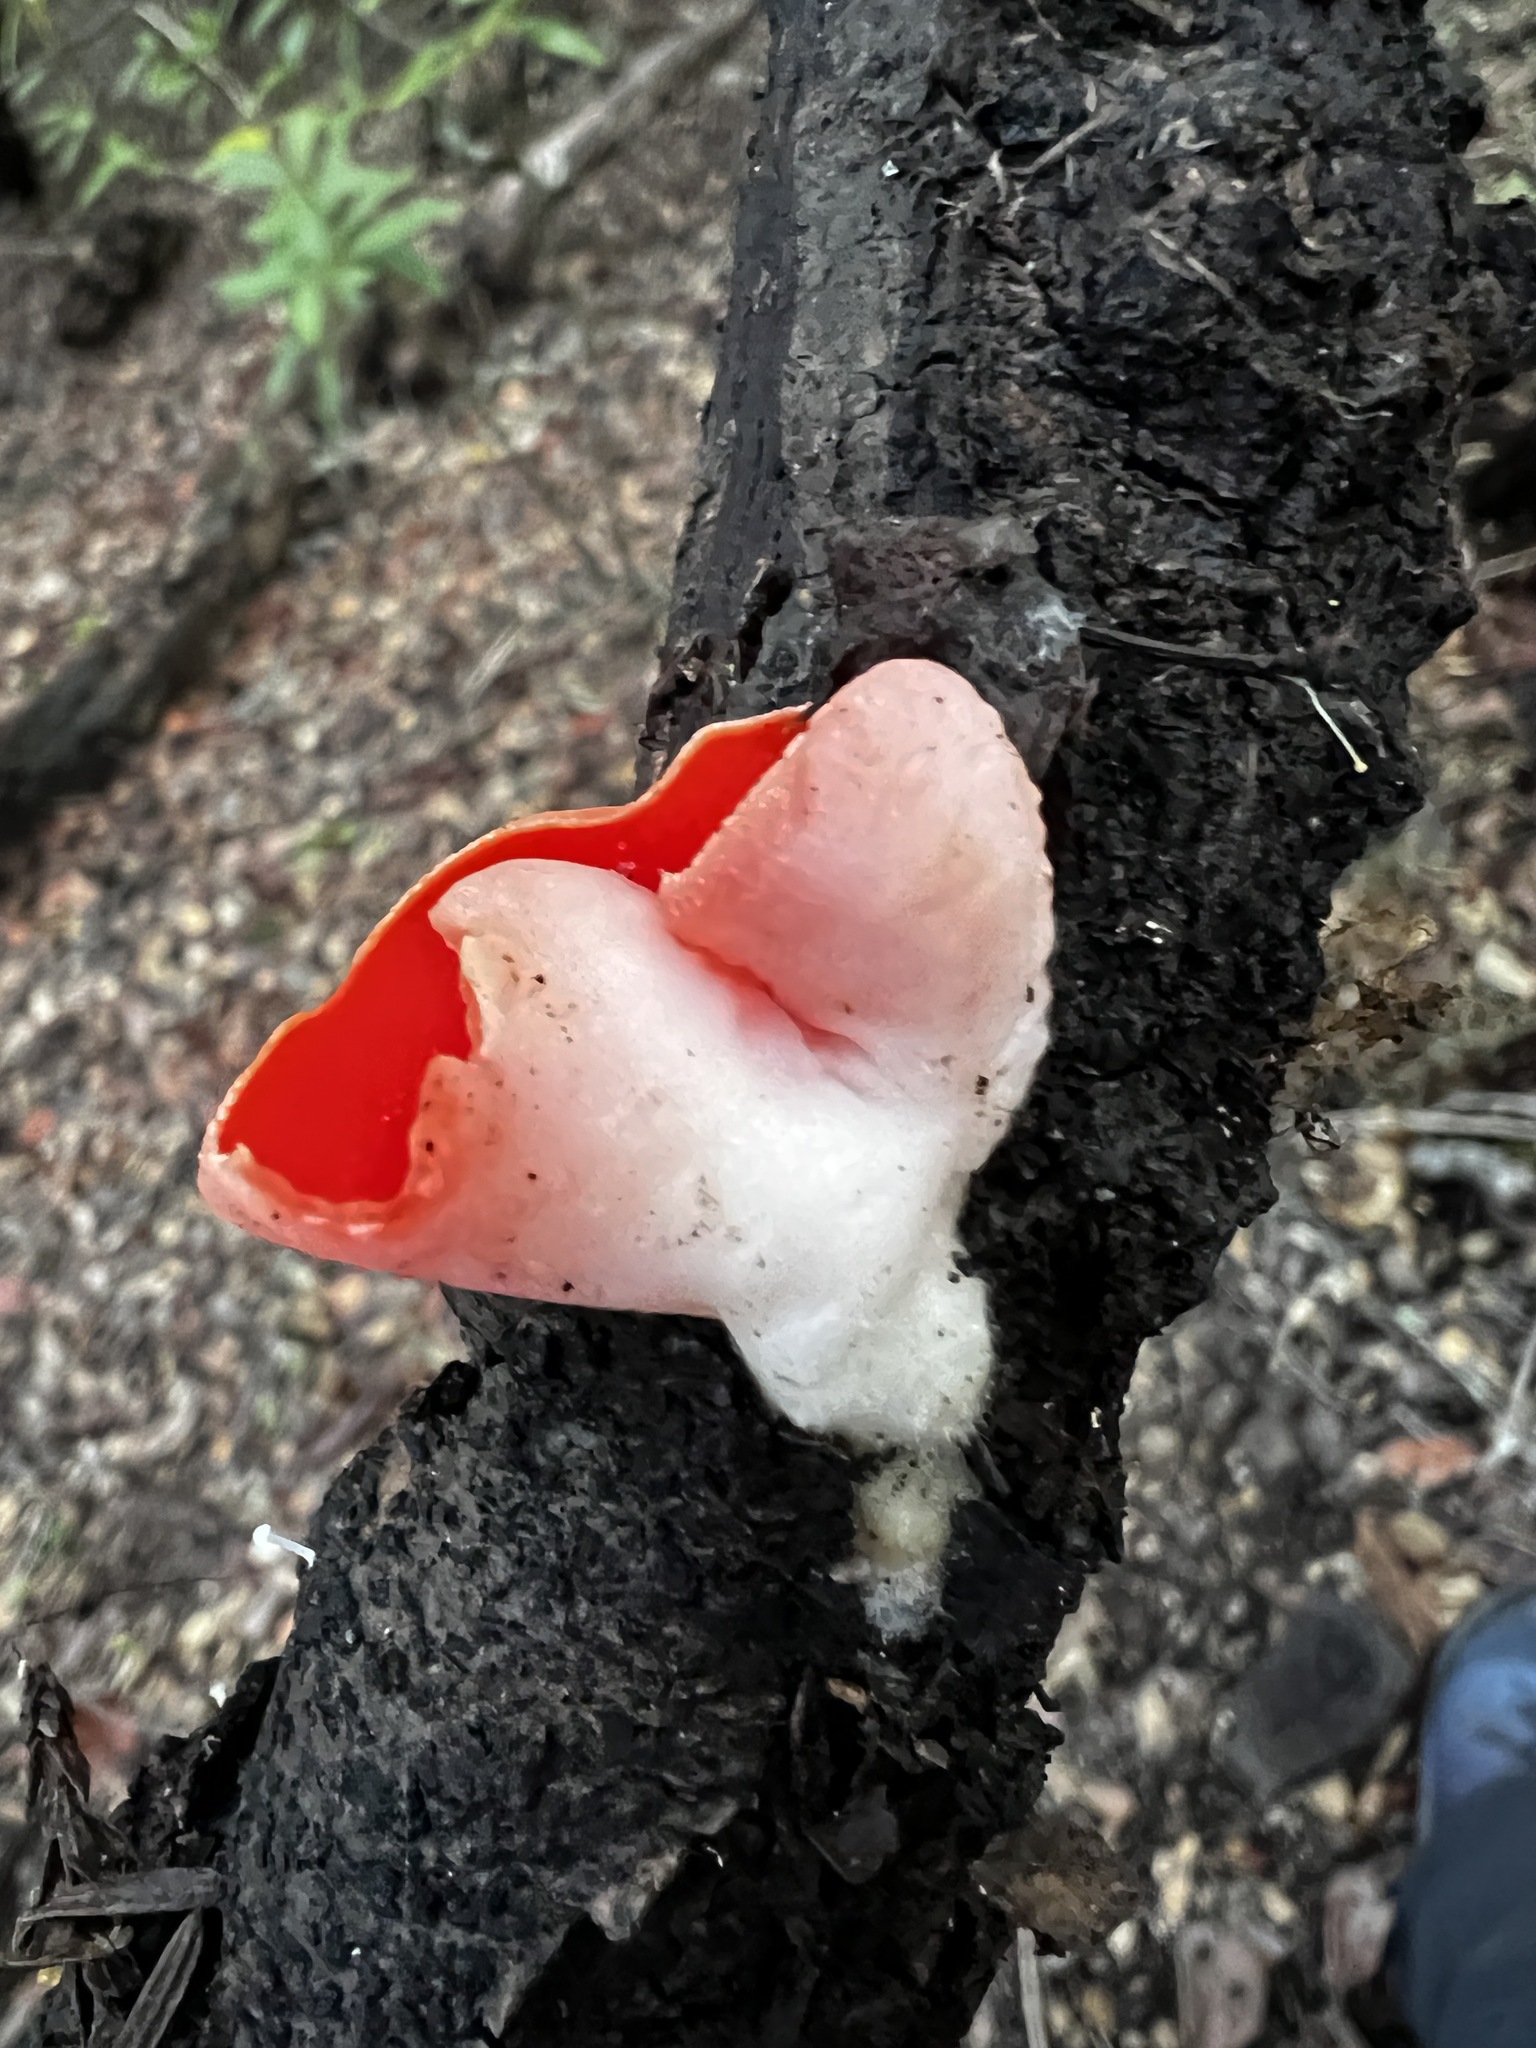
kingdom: Fungi
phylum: Ascomycota
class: Pezizomycetes
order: Pezizales
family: Sarcoscyphaceae
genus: Sarcoscypha
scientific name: Sarcoscypha coccinea
